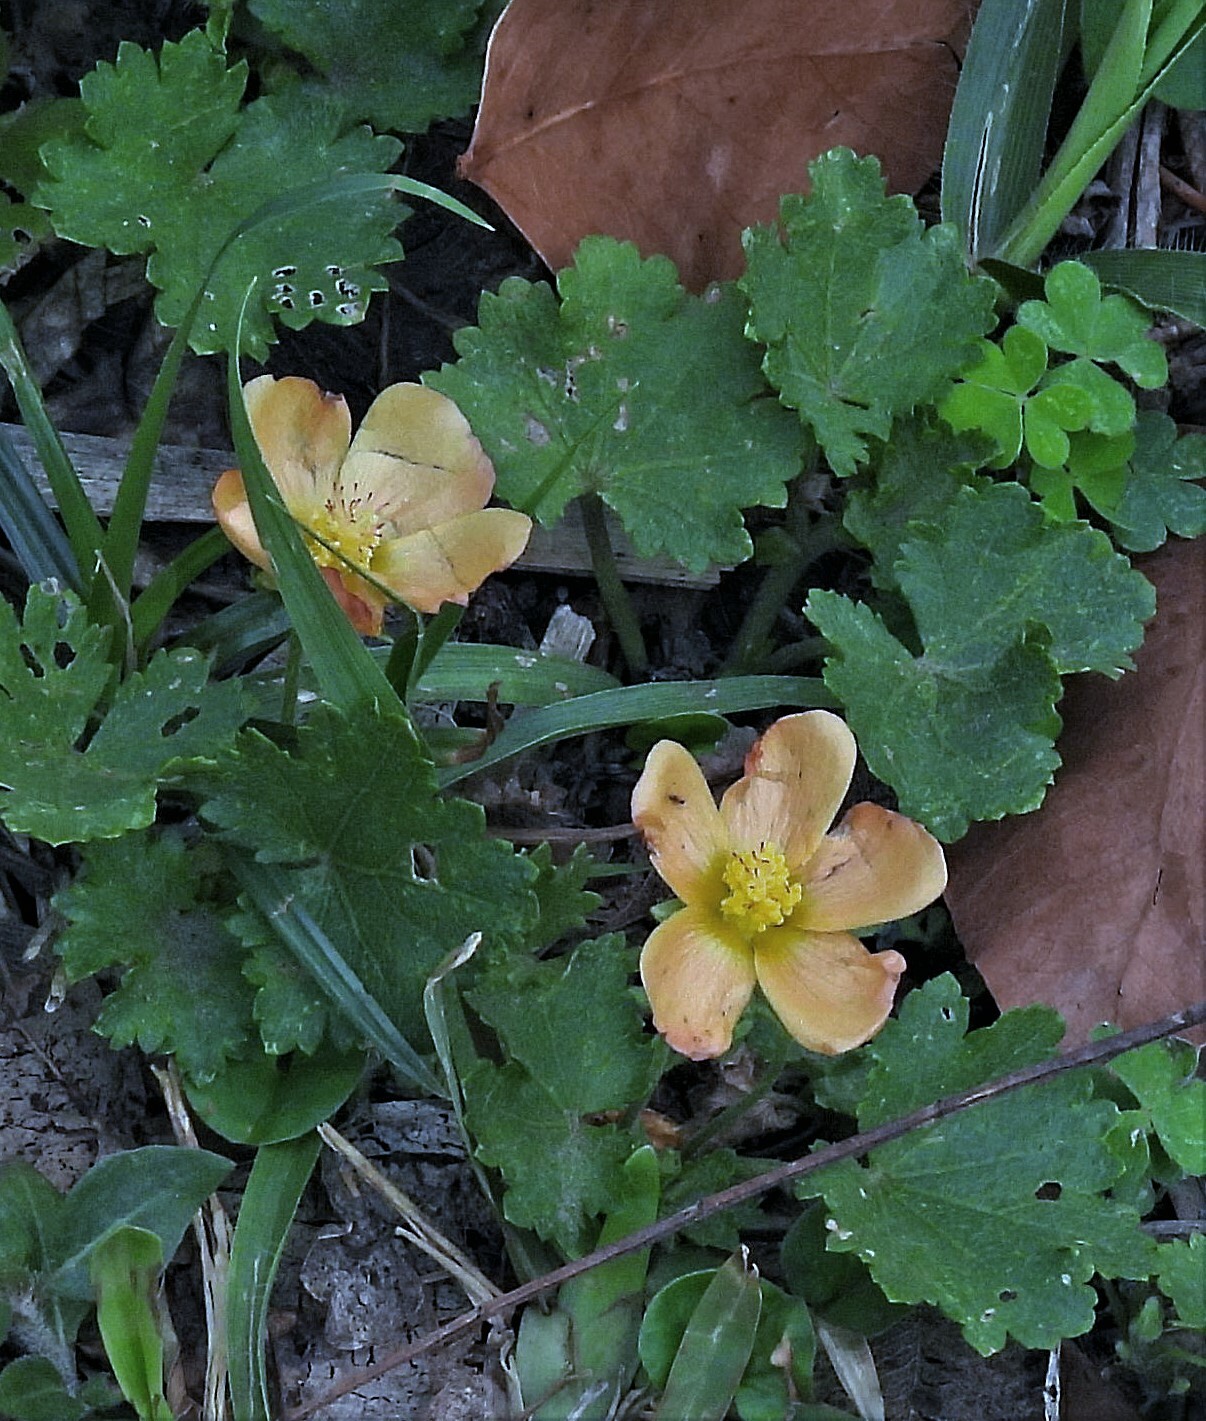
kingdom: Plantae
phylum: Tracheophyta
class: Magnoliopsida
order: Malvales
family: Malvaceae
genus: Modiolastrum
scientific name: Modiolastrum malvifolium
